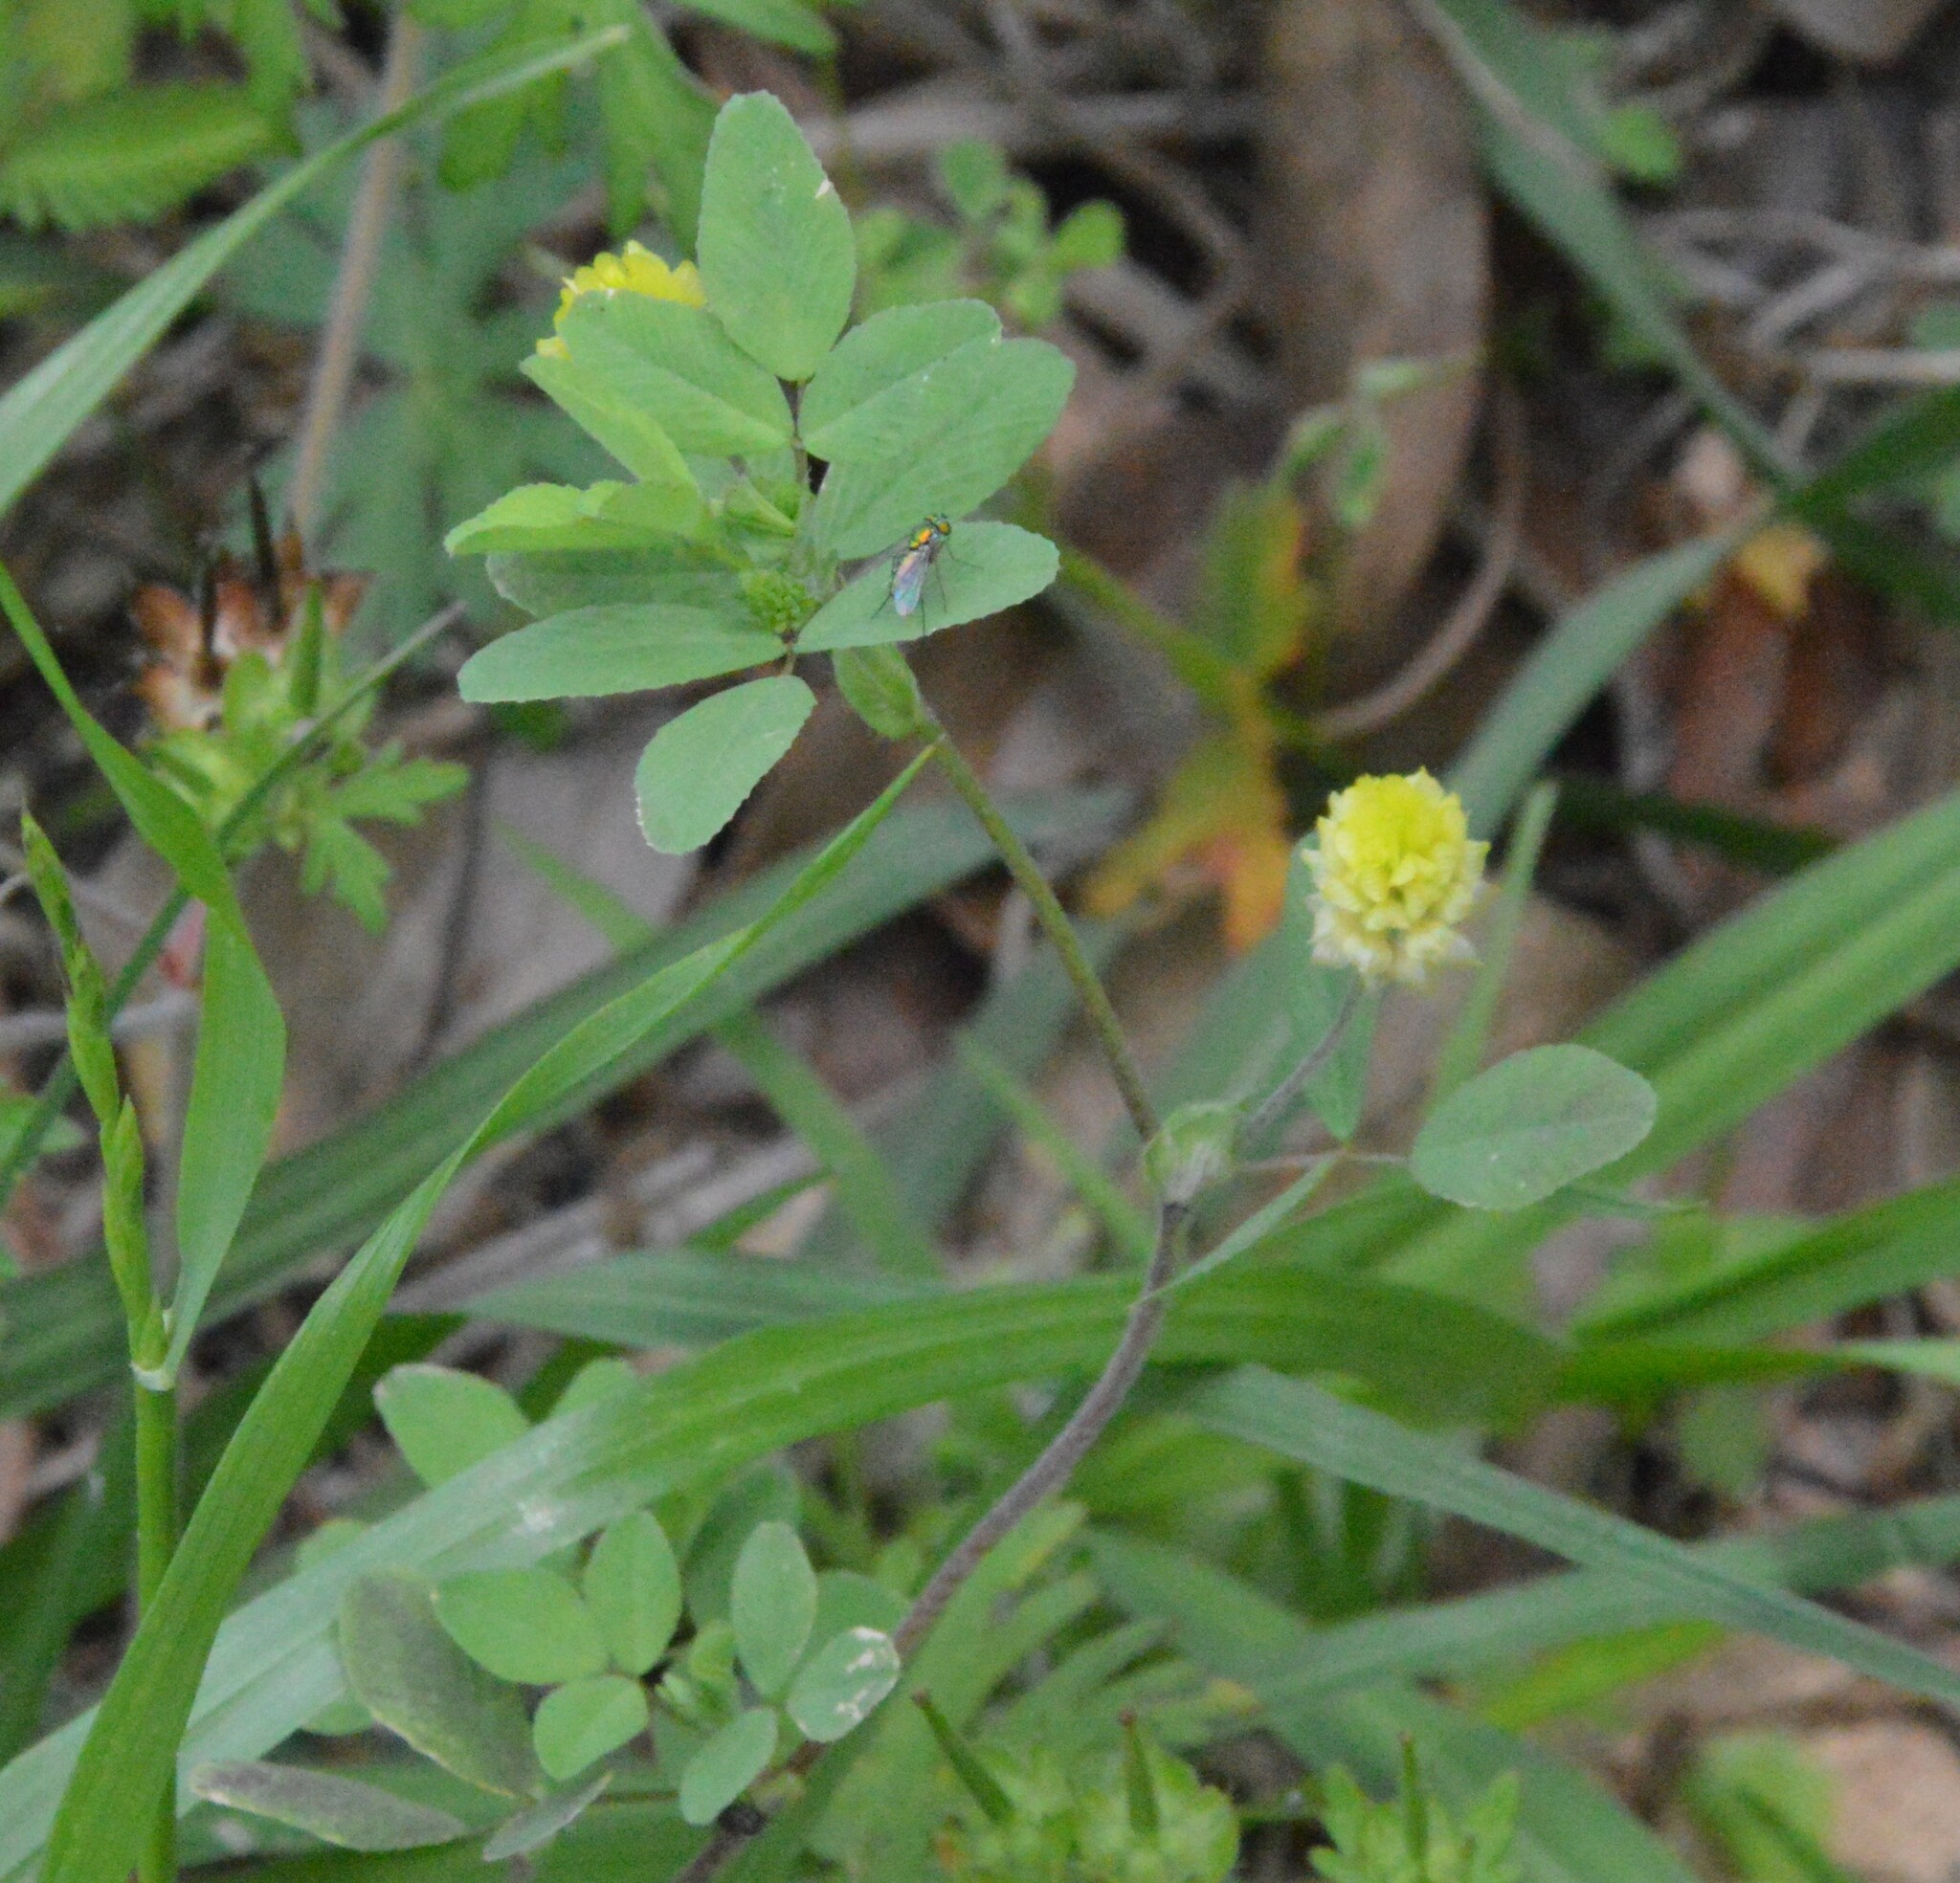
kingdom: Plantae
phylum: Tracheophyta
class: Magnoliopsida
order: Fabales
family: Fabaceae
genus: Trifolium
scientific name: Trifolium campestre
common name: Field clover
